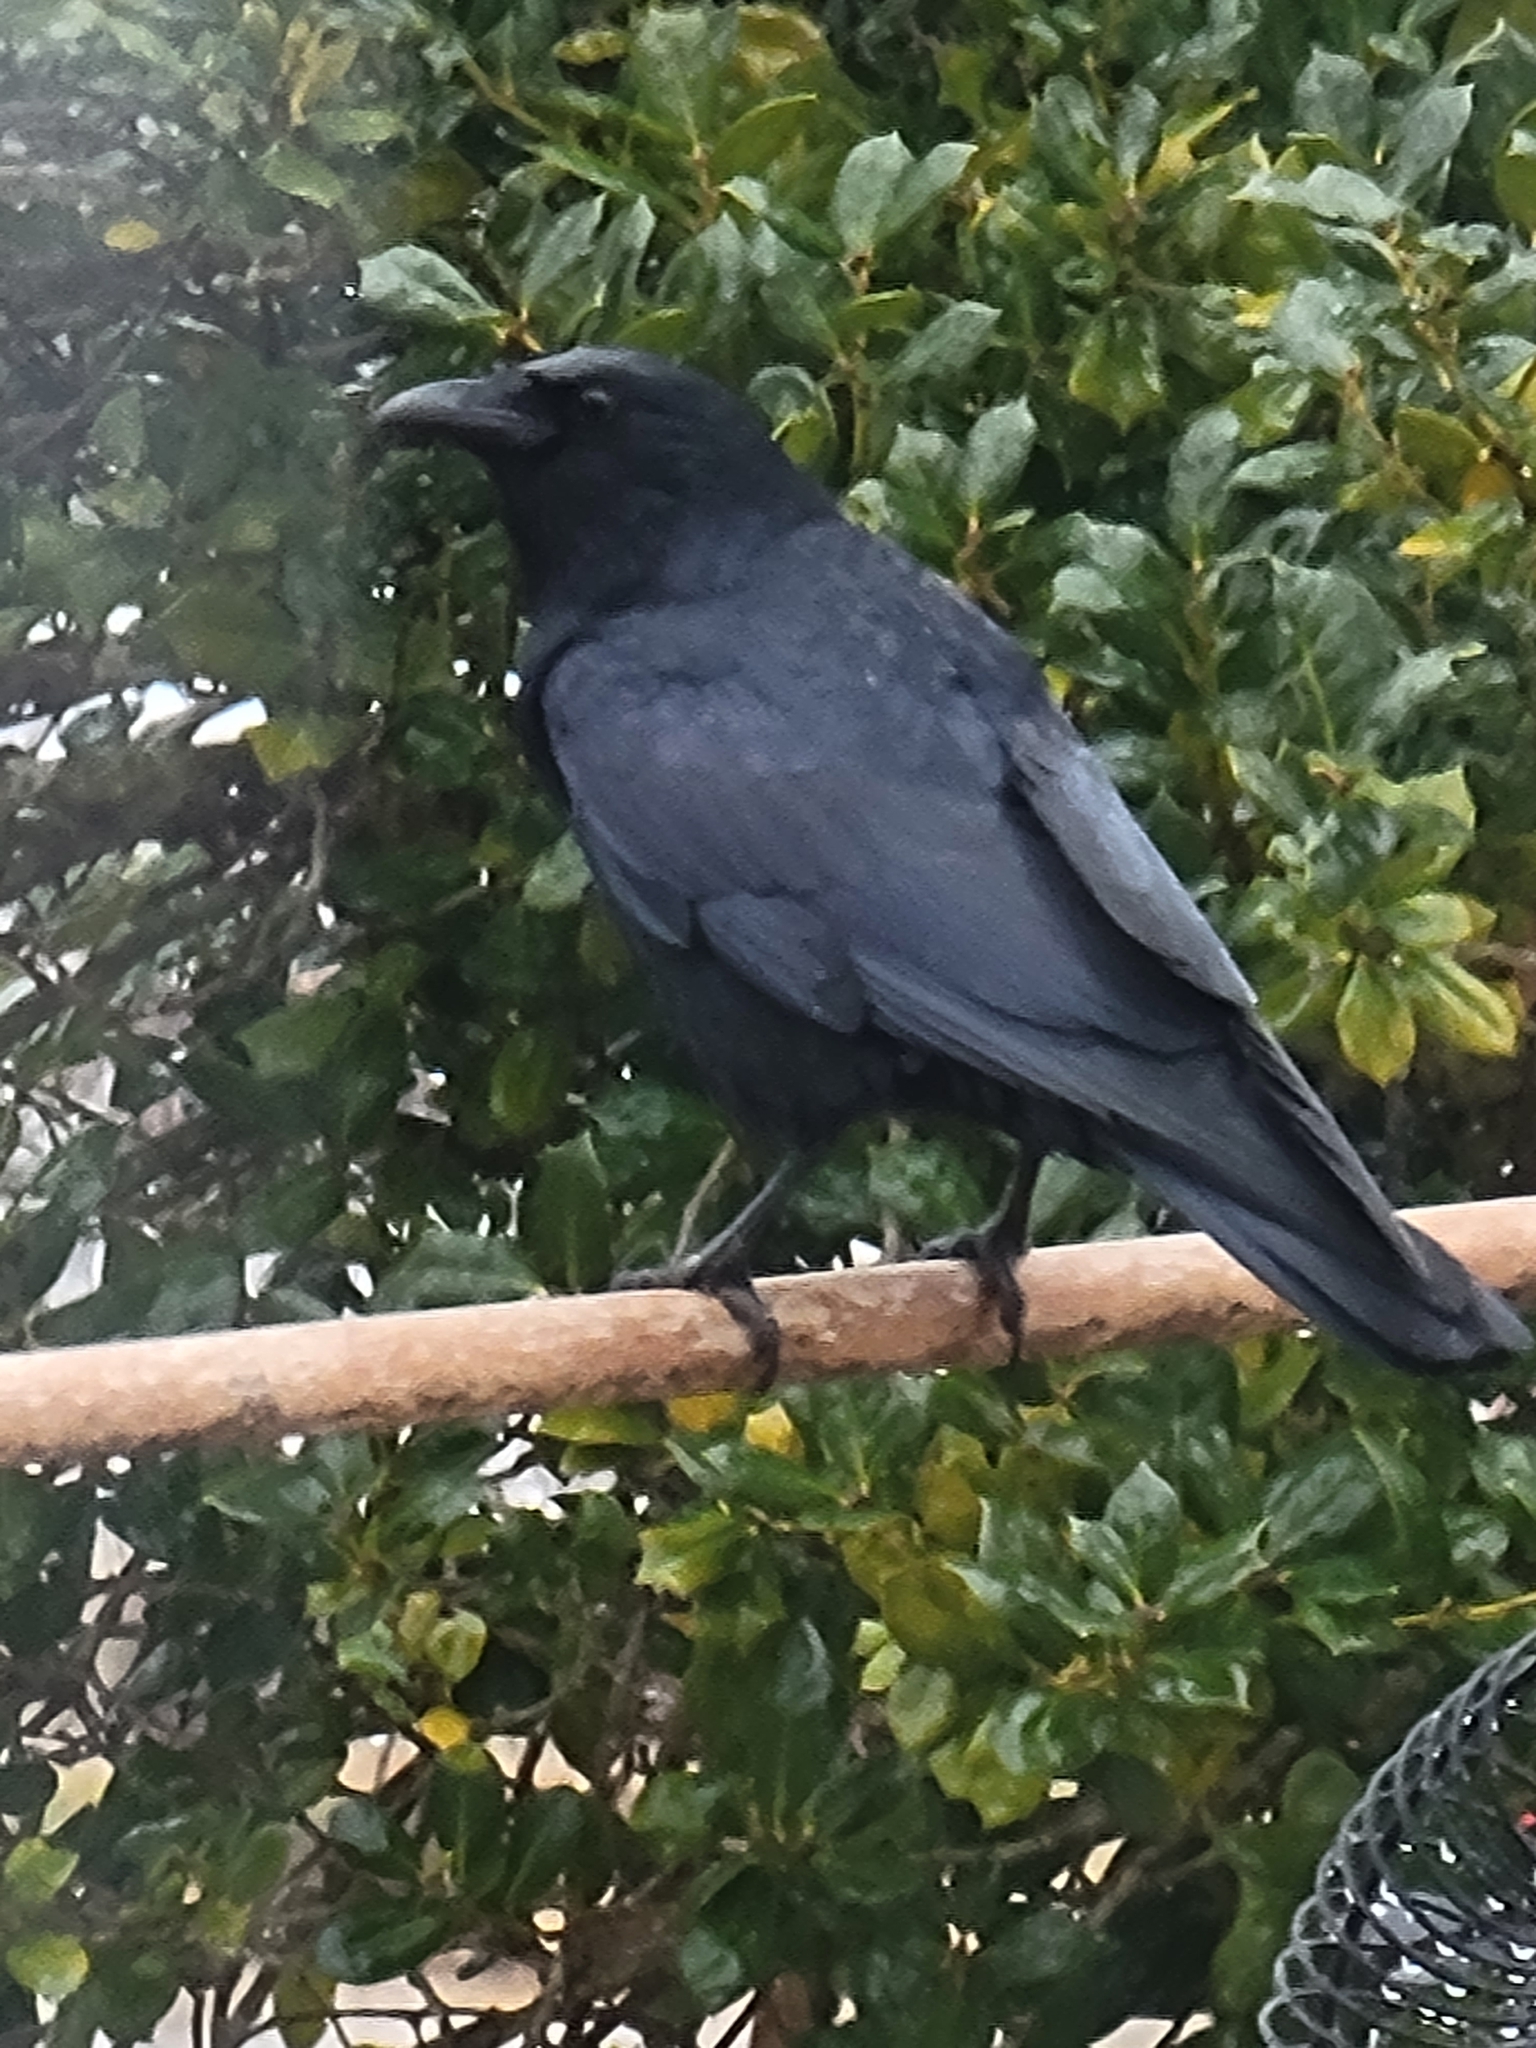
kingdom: Animalia
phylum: Chordata
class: Aves
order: Passeriformes
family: Corvidae
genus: Corvus
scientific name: Corvus ossifragus
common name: Fish crow
